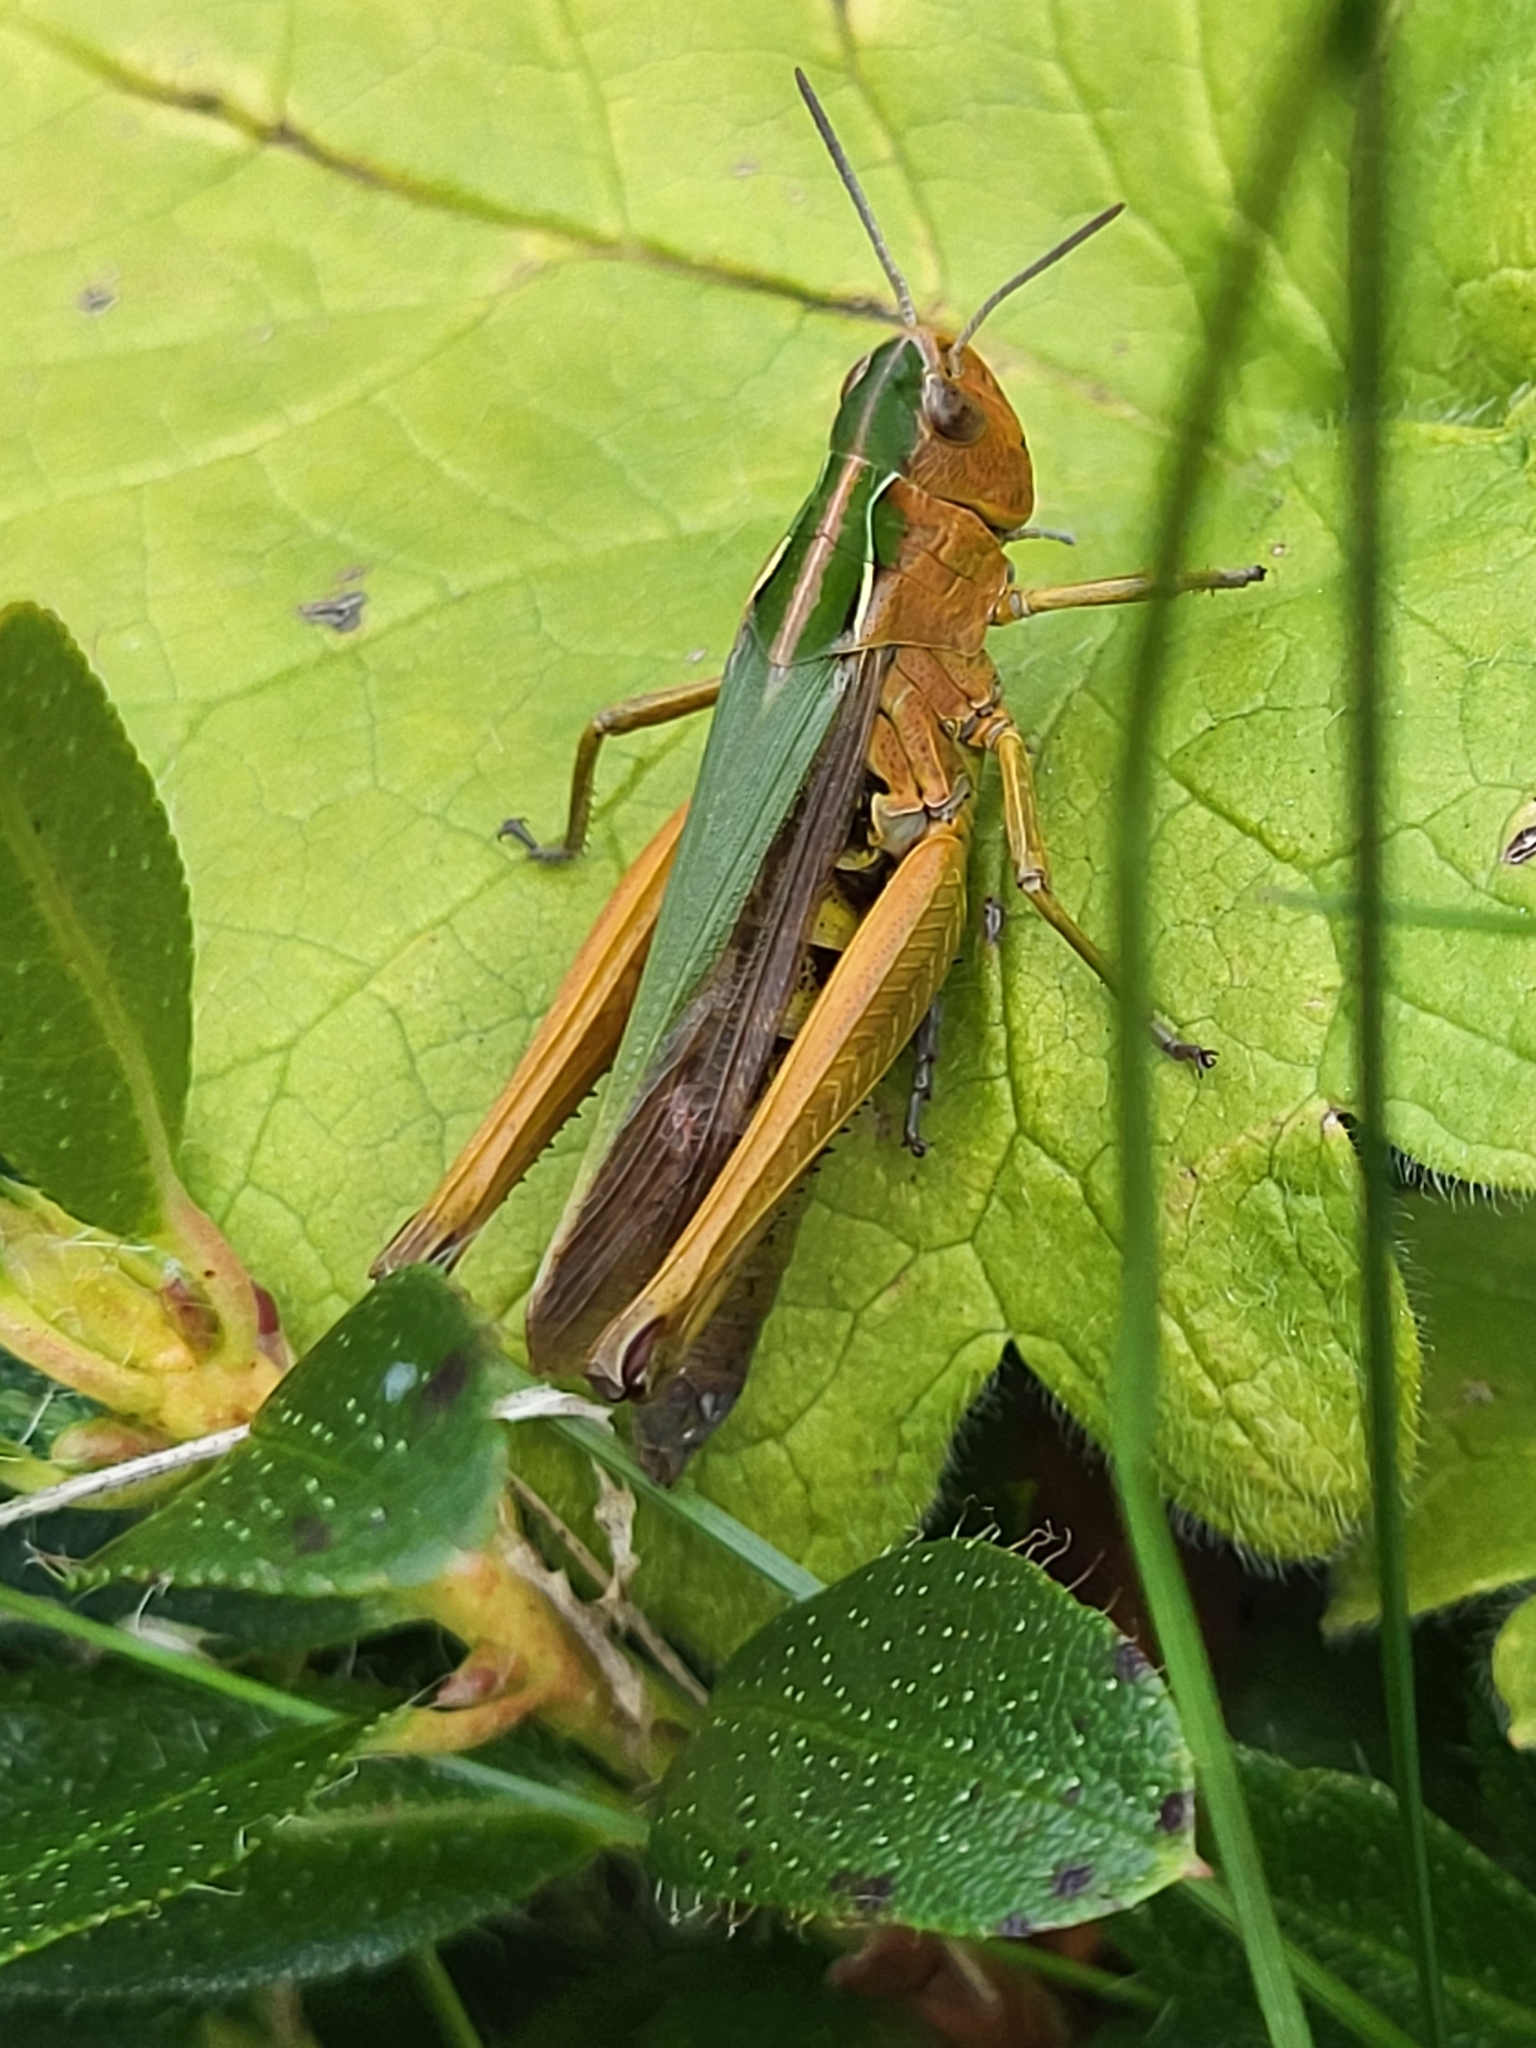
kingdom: Animalia
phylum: Arthropoda
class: Insecta
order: Orthoptera
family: Acrididae
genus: Omocestus
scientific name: Omocestus viridulus
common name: Common green grasshopper
